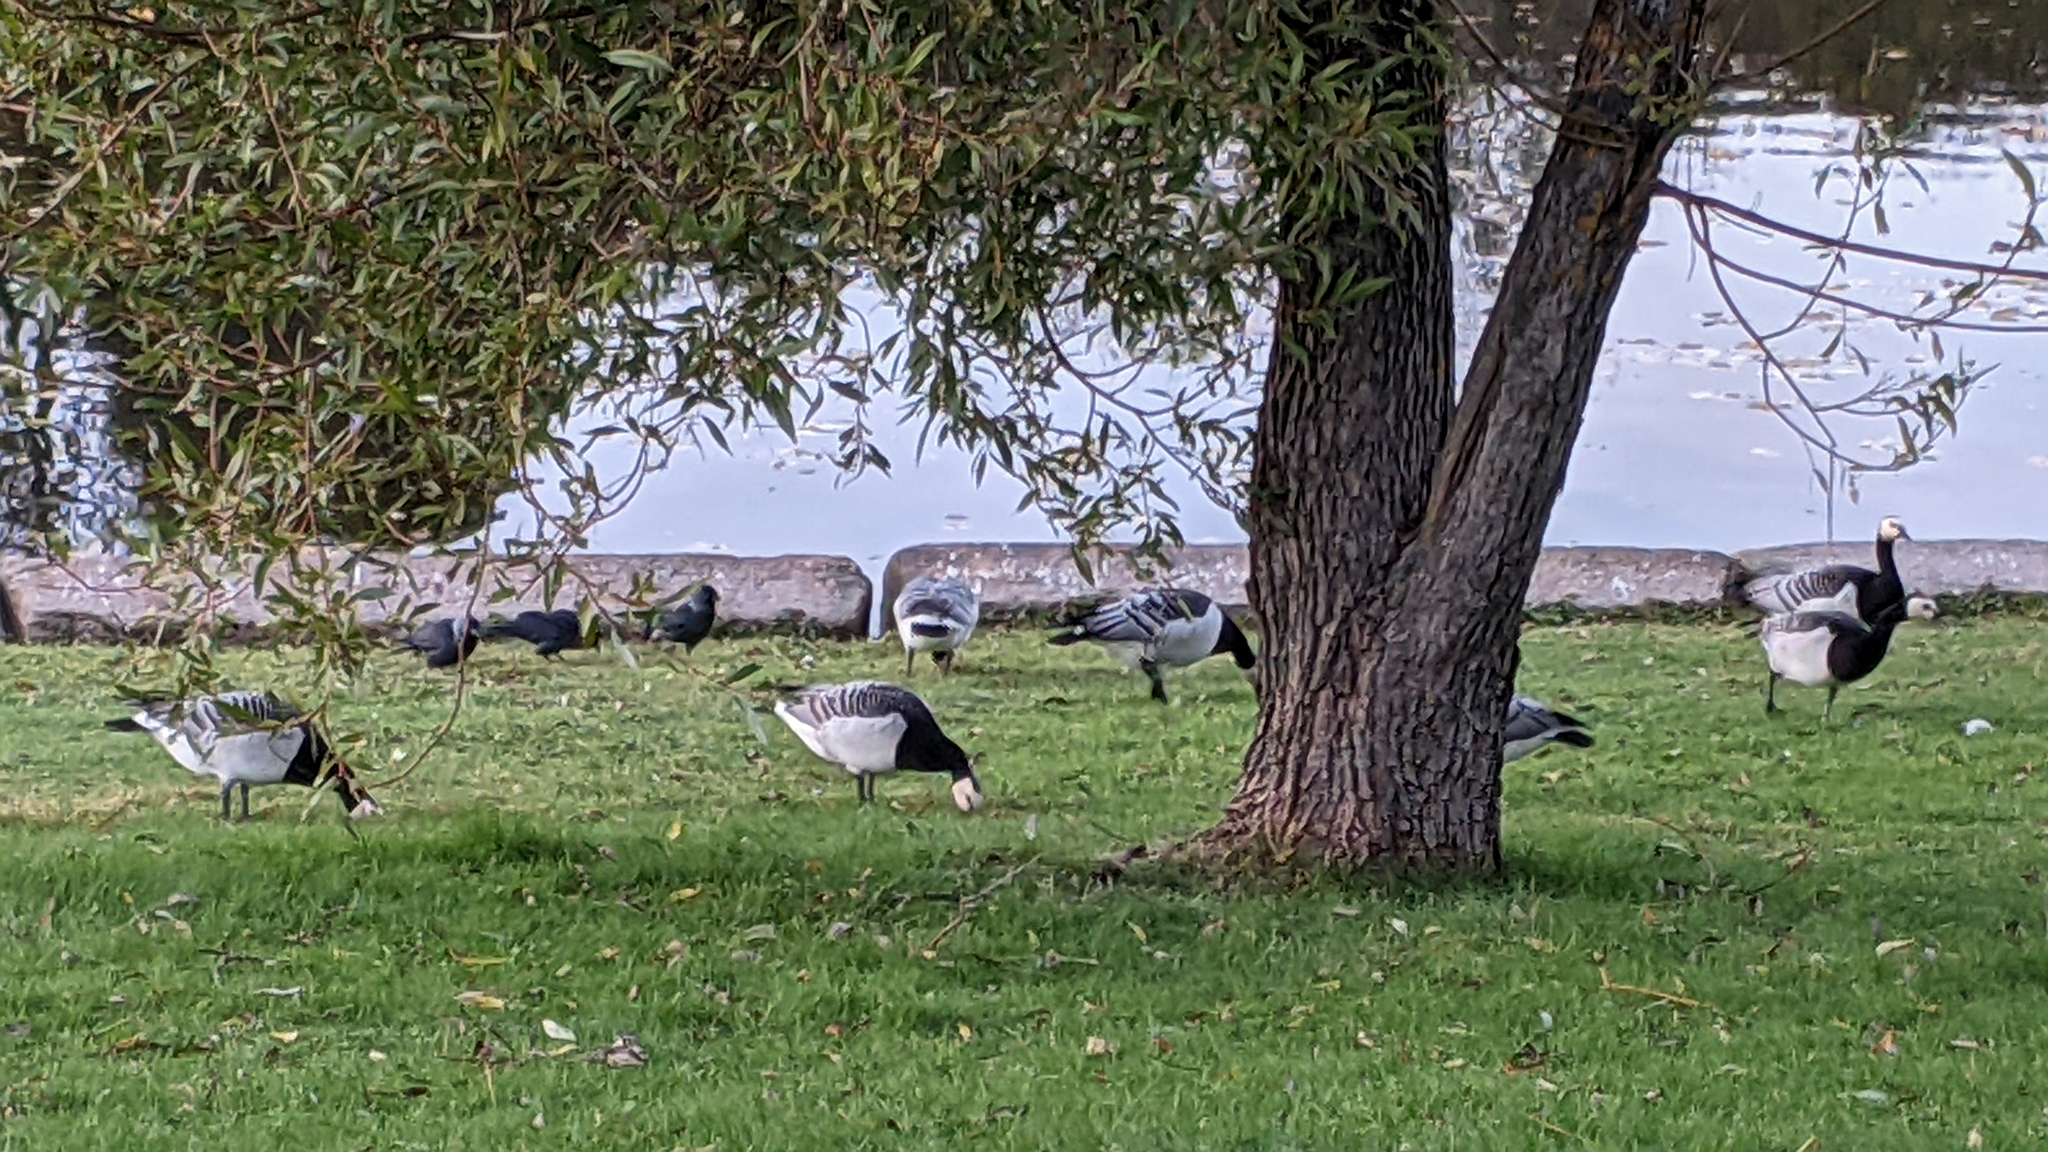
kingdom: Animalia
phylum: Chordata
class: Aves
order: Anseriformes
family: Anatidae
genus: Branta
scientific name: Branta leucopsis
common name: Barnacle goose
